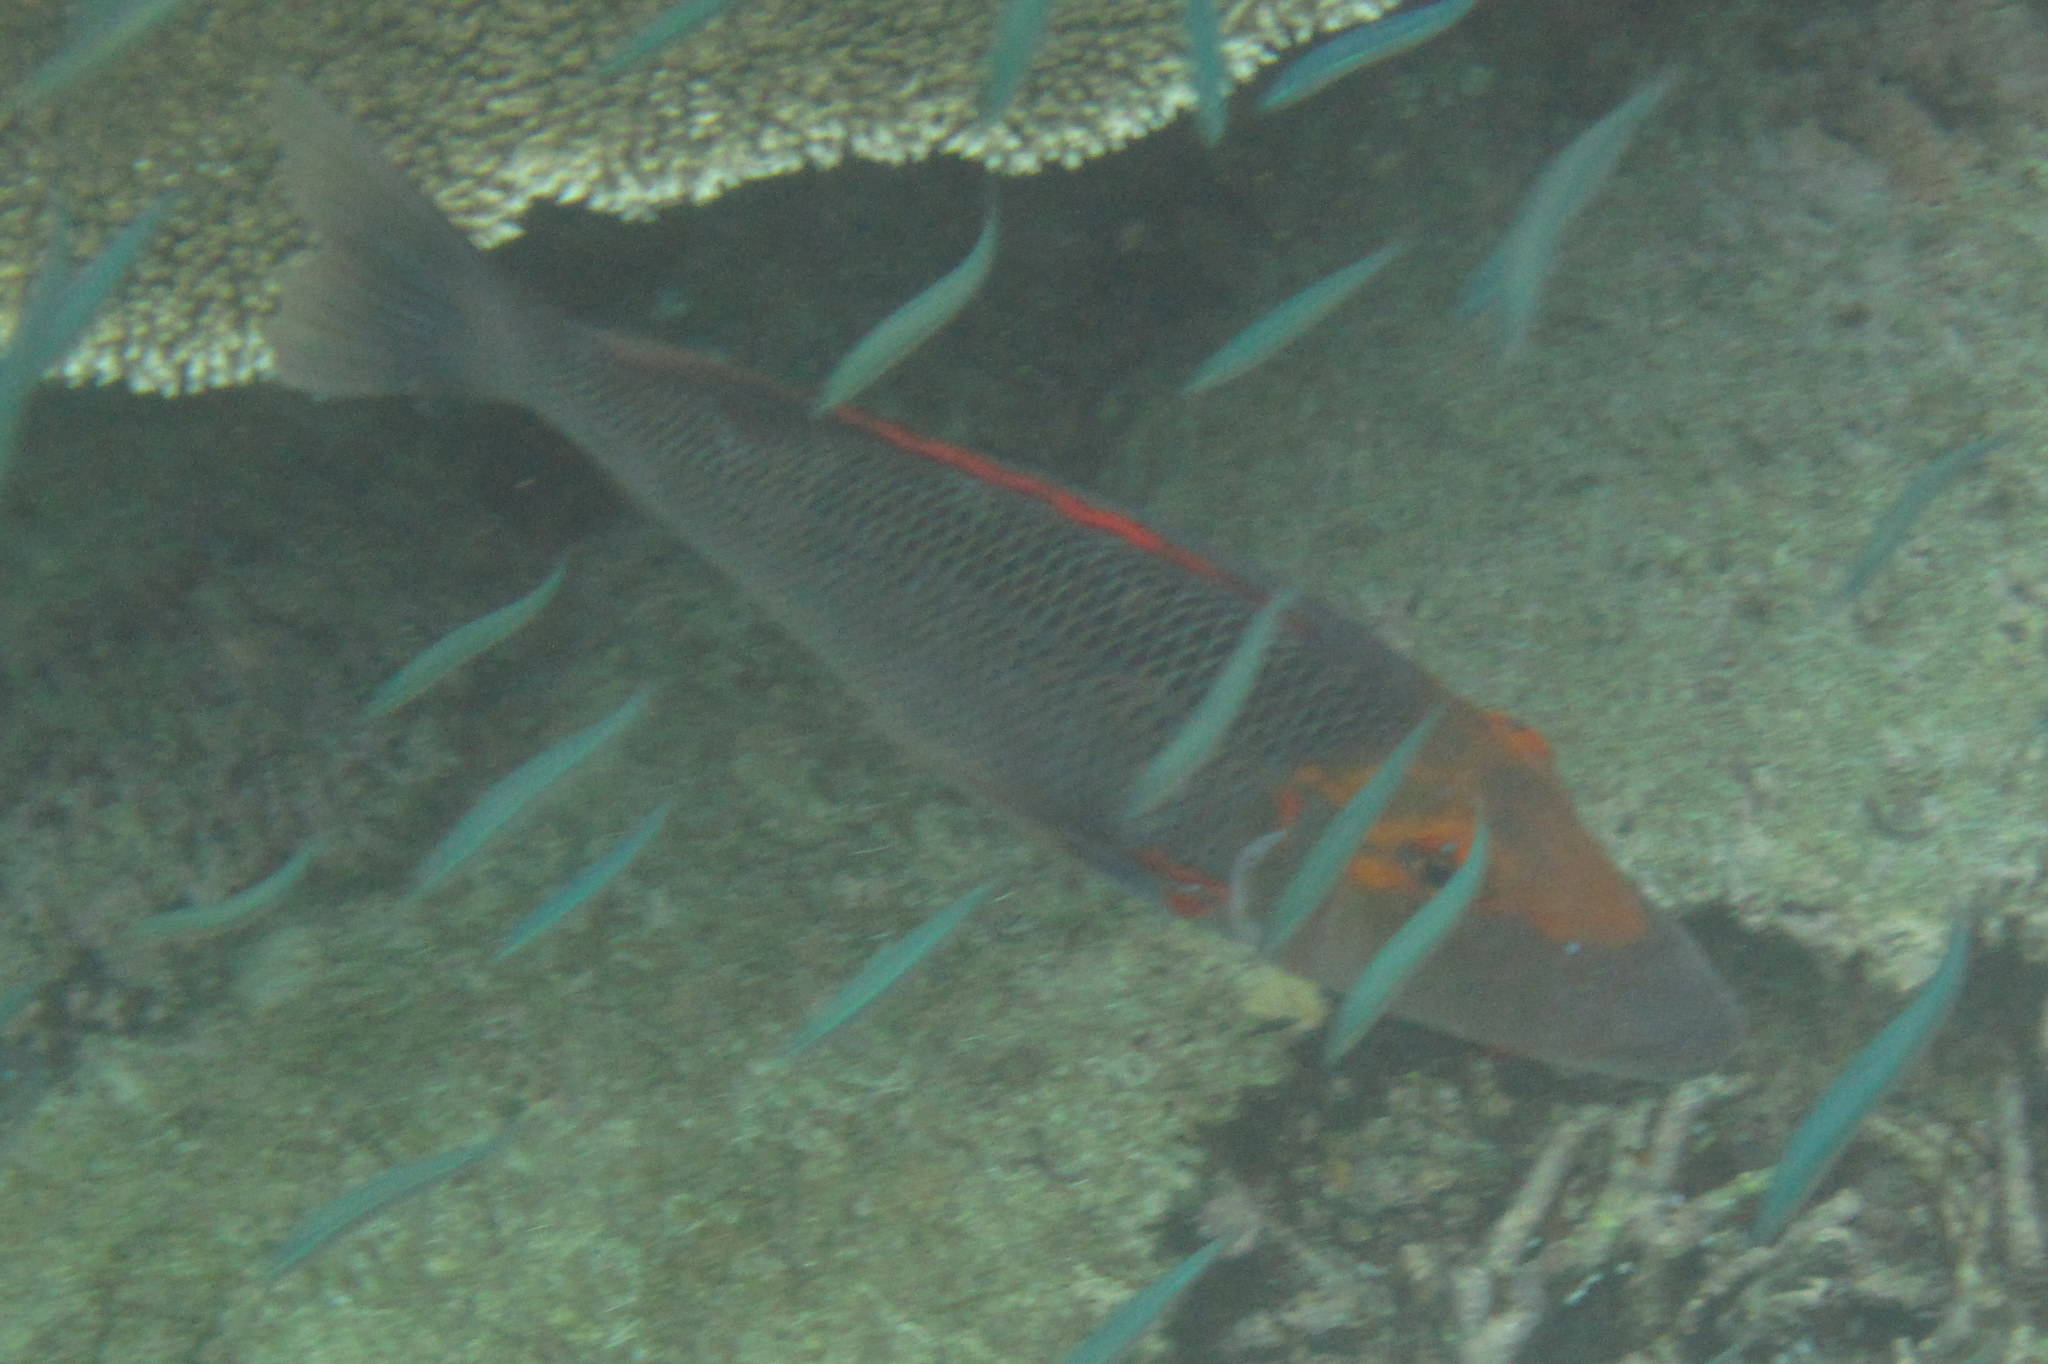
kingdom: Animalia
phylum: Chordata
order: Perciformes
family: Lethrinidae
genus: Lethrinus
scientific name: Lethrinus miniatus
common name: Trumpet emperor
